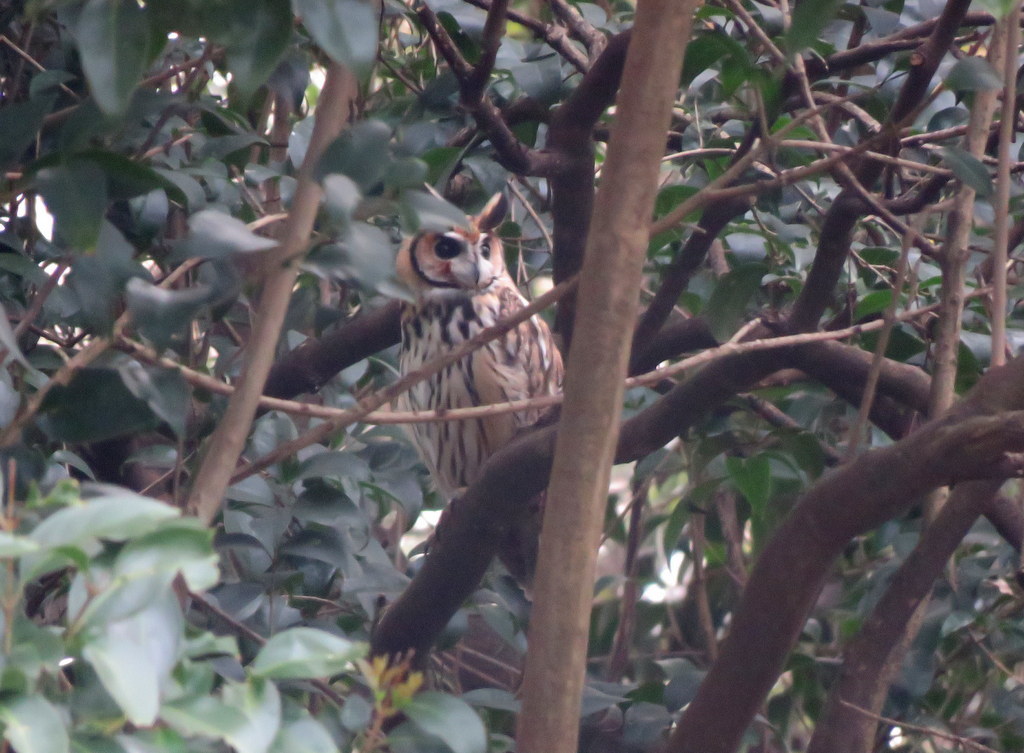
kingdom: Animalia
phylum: Chordata
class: Aves
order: Strigiformes
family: Strigidae
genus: Pseudoscops
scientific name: Pseudoscops clamator
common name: Striped owl
